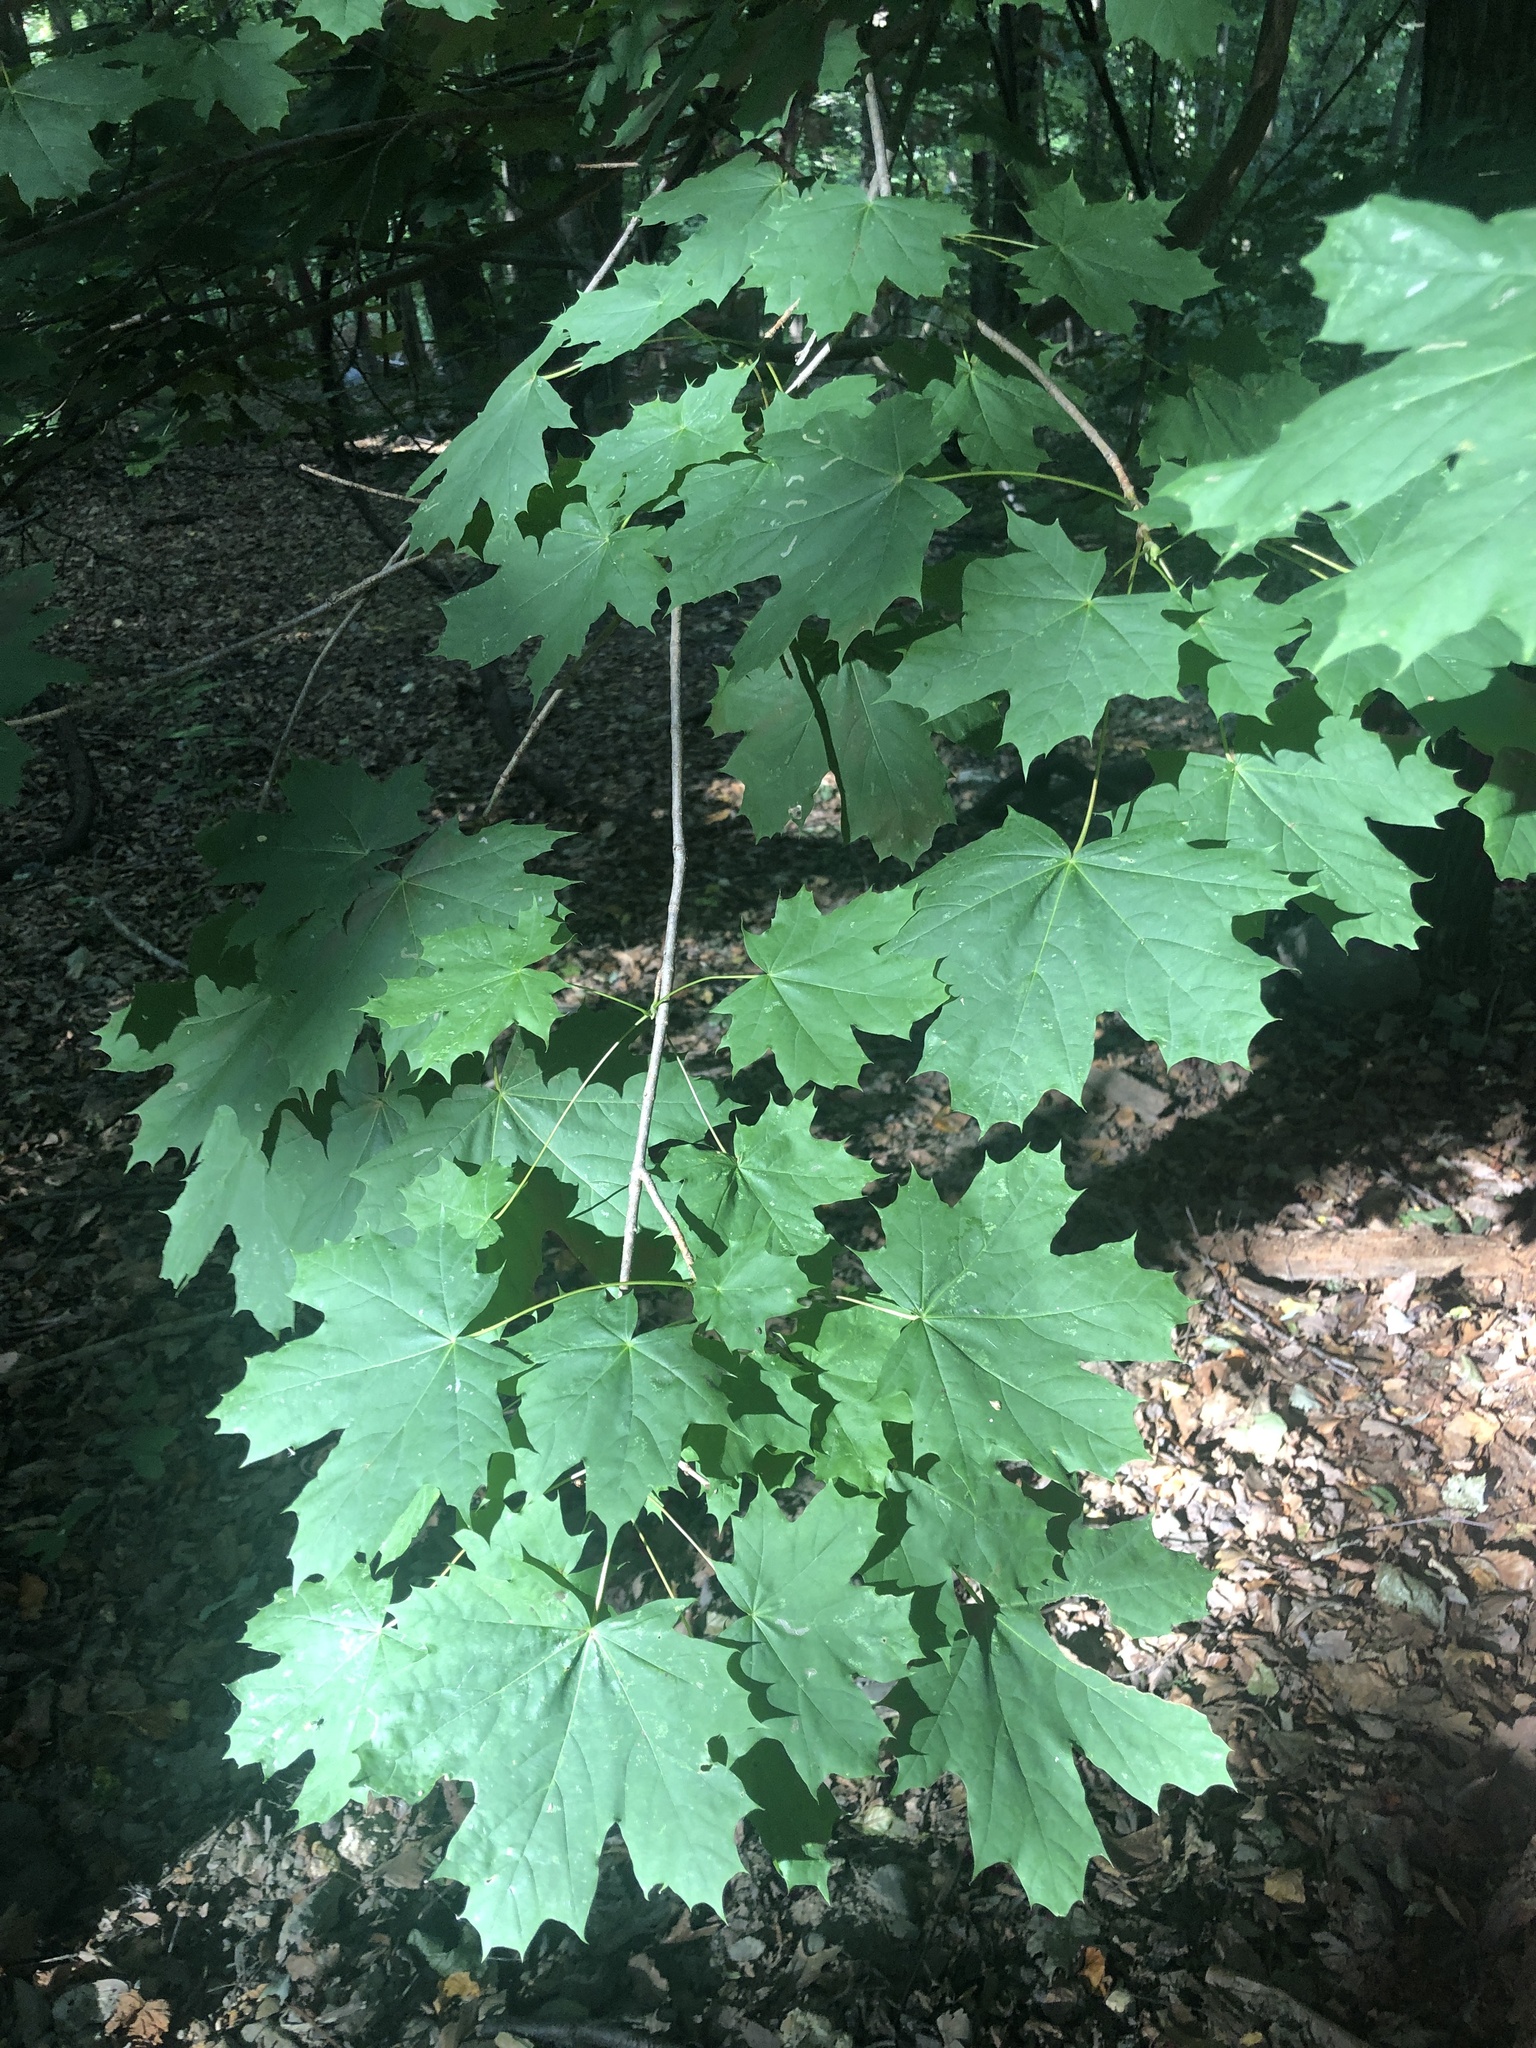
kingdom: Plantae
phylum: Tracheophyta
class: Magnoliopsida
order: Sapindales
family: Sapindaceae
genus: Acer
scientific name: Acer platanoides
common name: Norway maple
